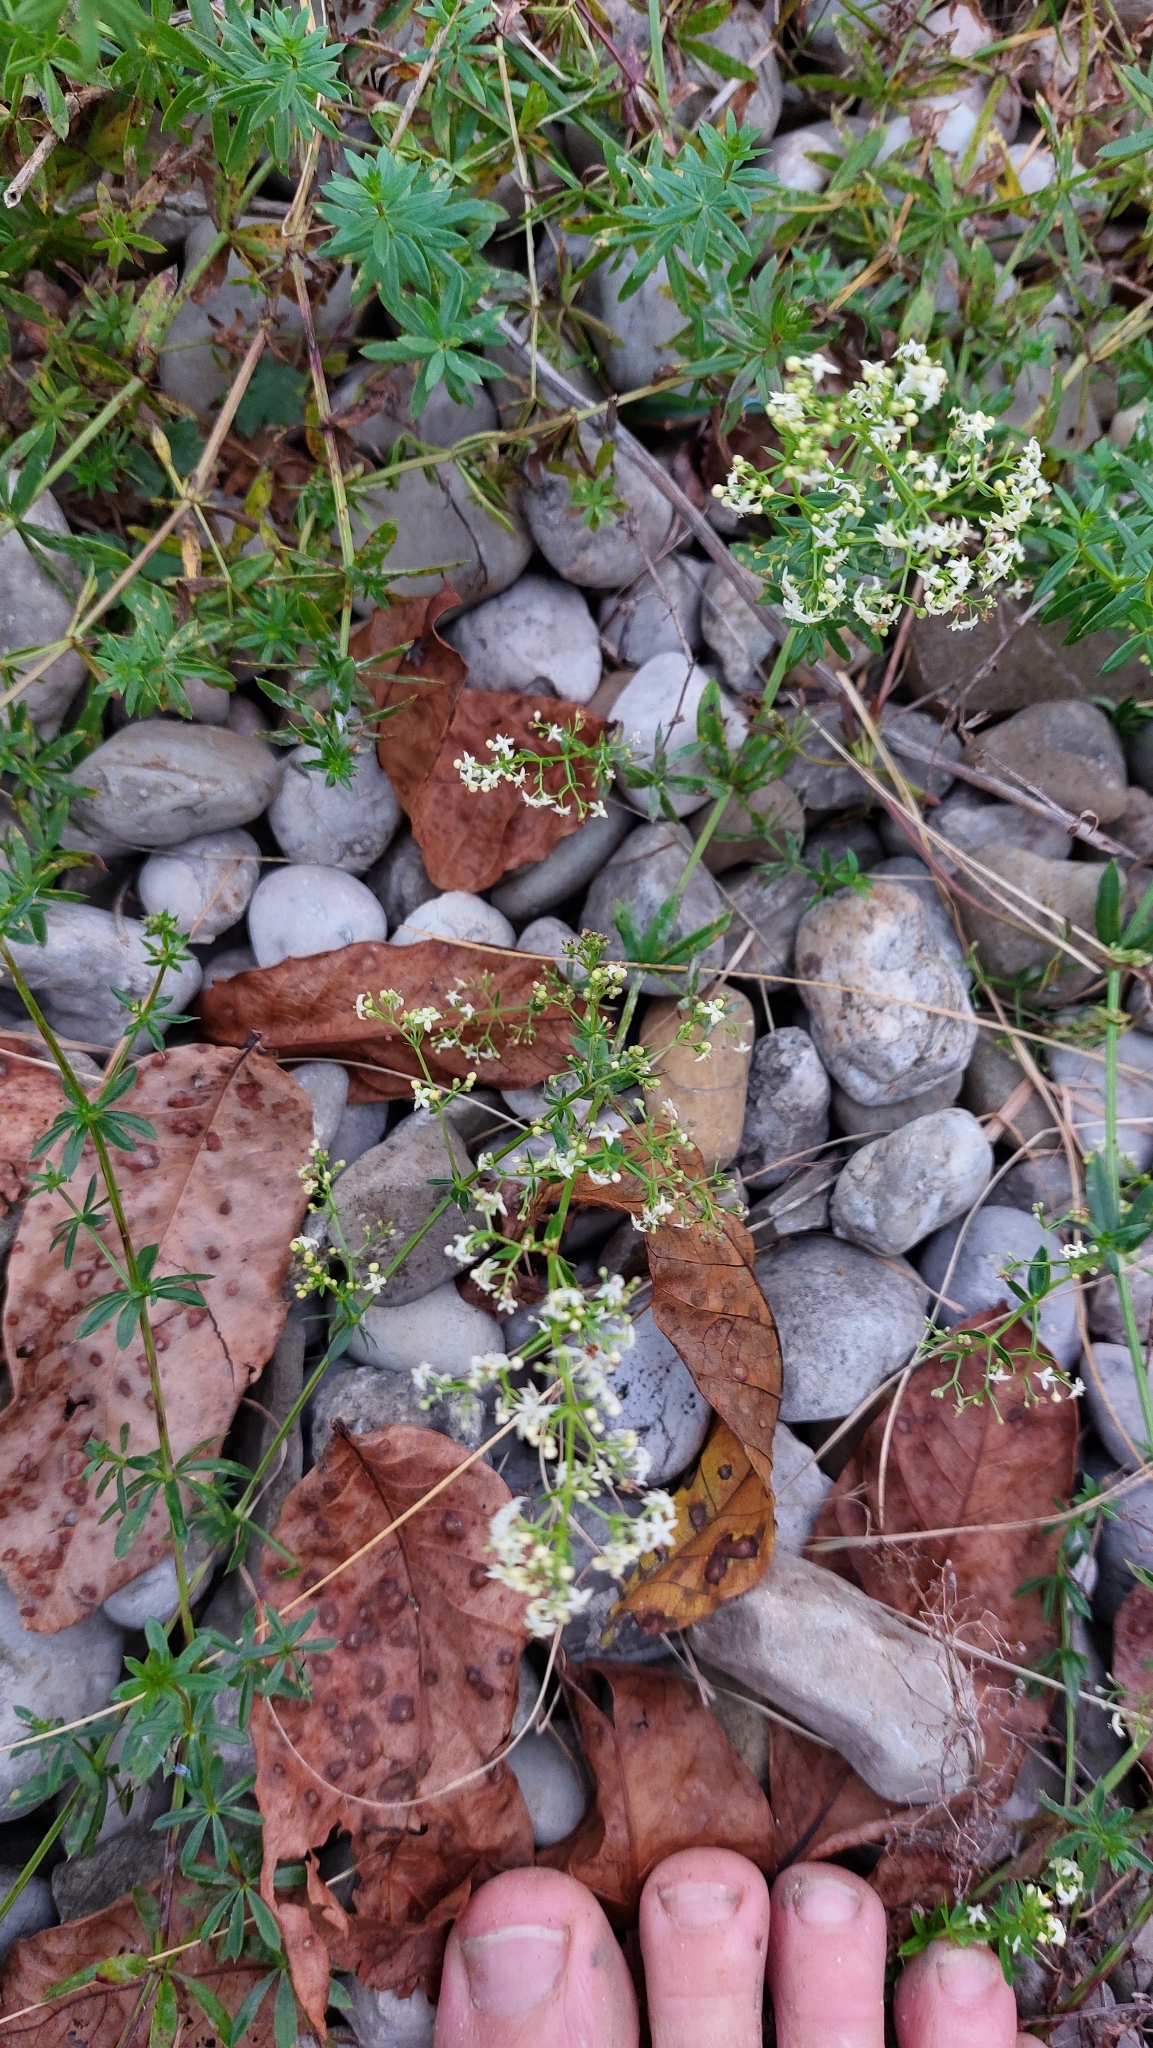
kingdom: Plantae
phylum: Tracheophyta
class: Magnoliopsida
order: Gentianales
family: Rubiaceae
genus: Galium
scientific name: Galium album
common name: White bedstraw
